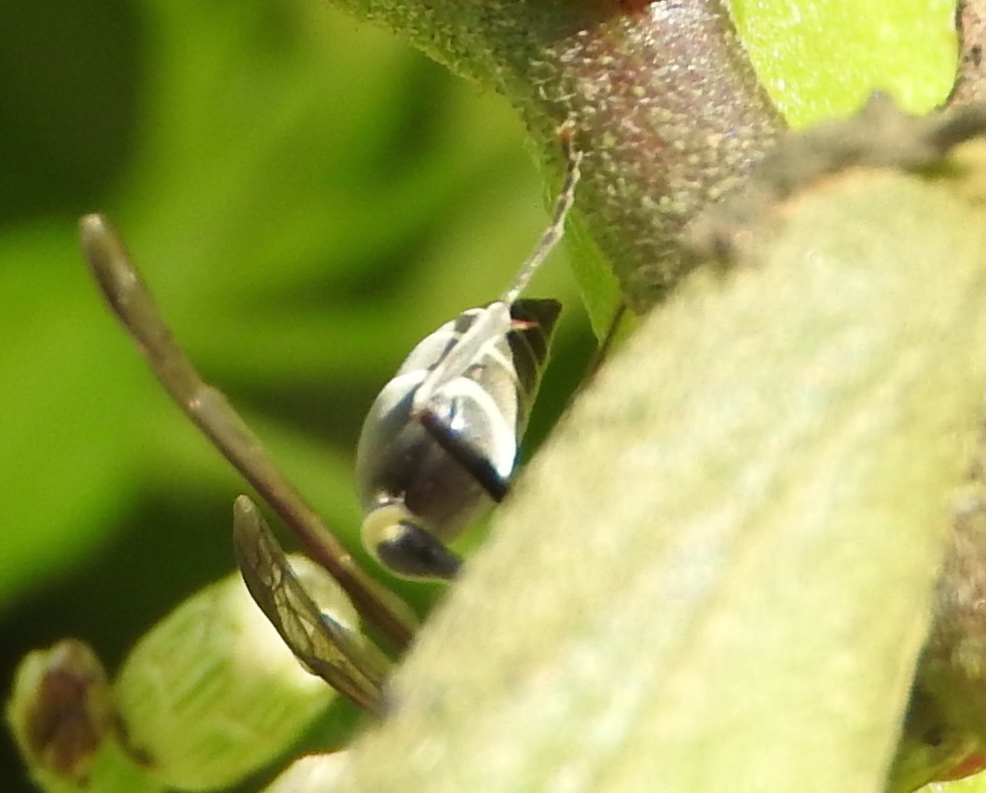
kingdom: Animalia
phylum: Arthropoda
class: Insecta
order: Hymenoptera
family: Vespidae
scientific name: Vespidae
